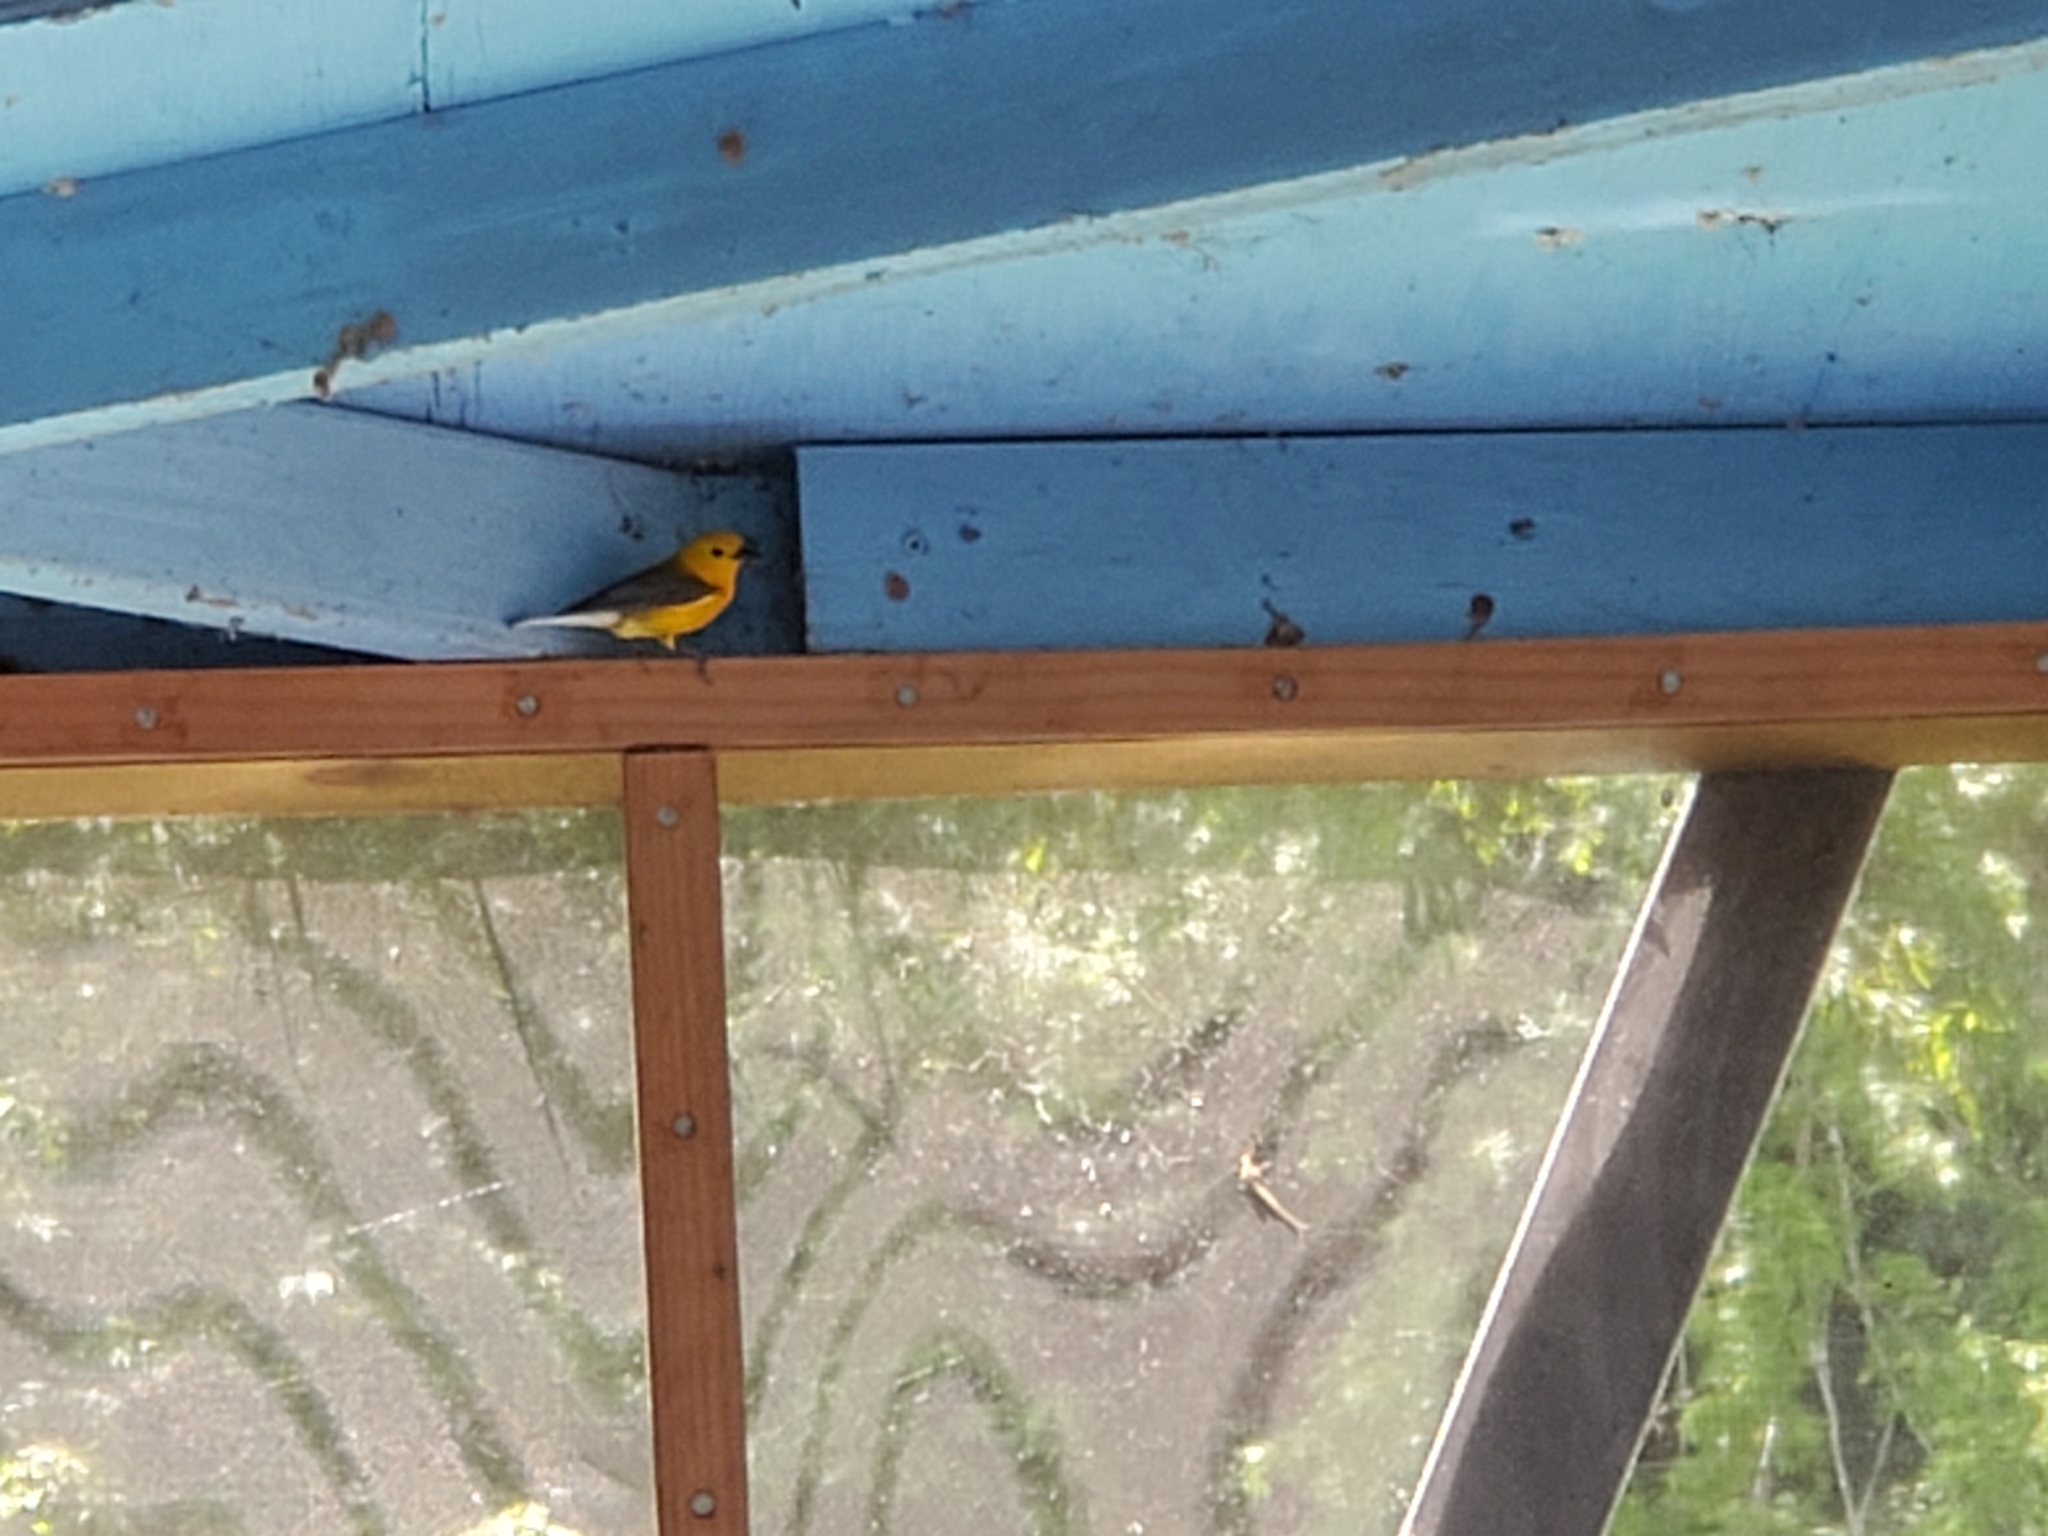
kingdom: Animalia
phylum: Chordata
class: Aves
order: Passeriformes
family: Parulidae
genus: Protonotaria
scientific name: Protonotaria citrea
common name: Prothonotary warbler
